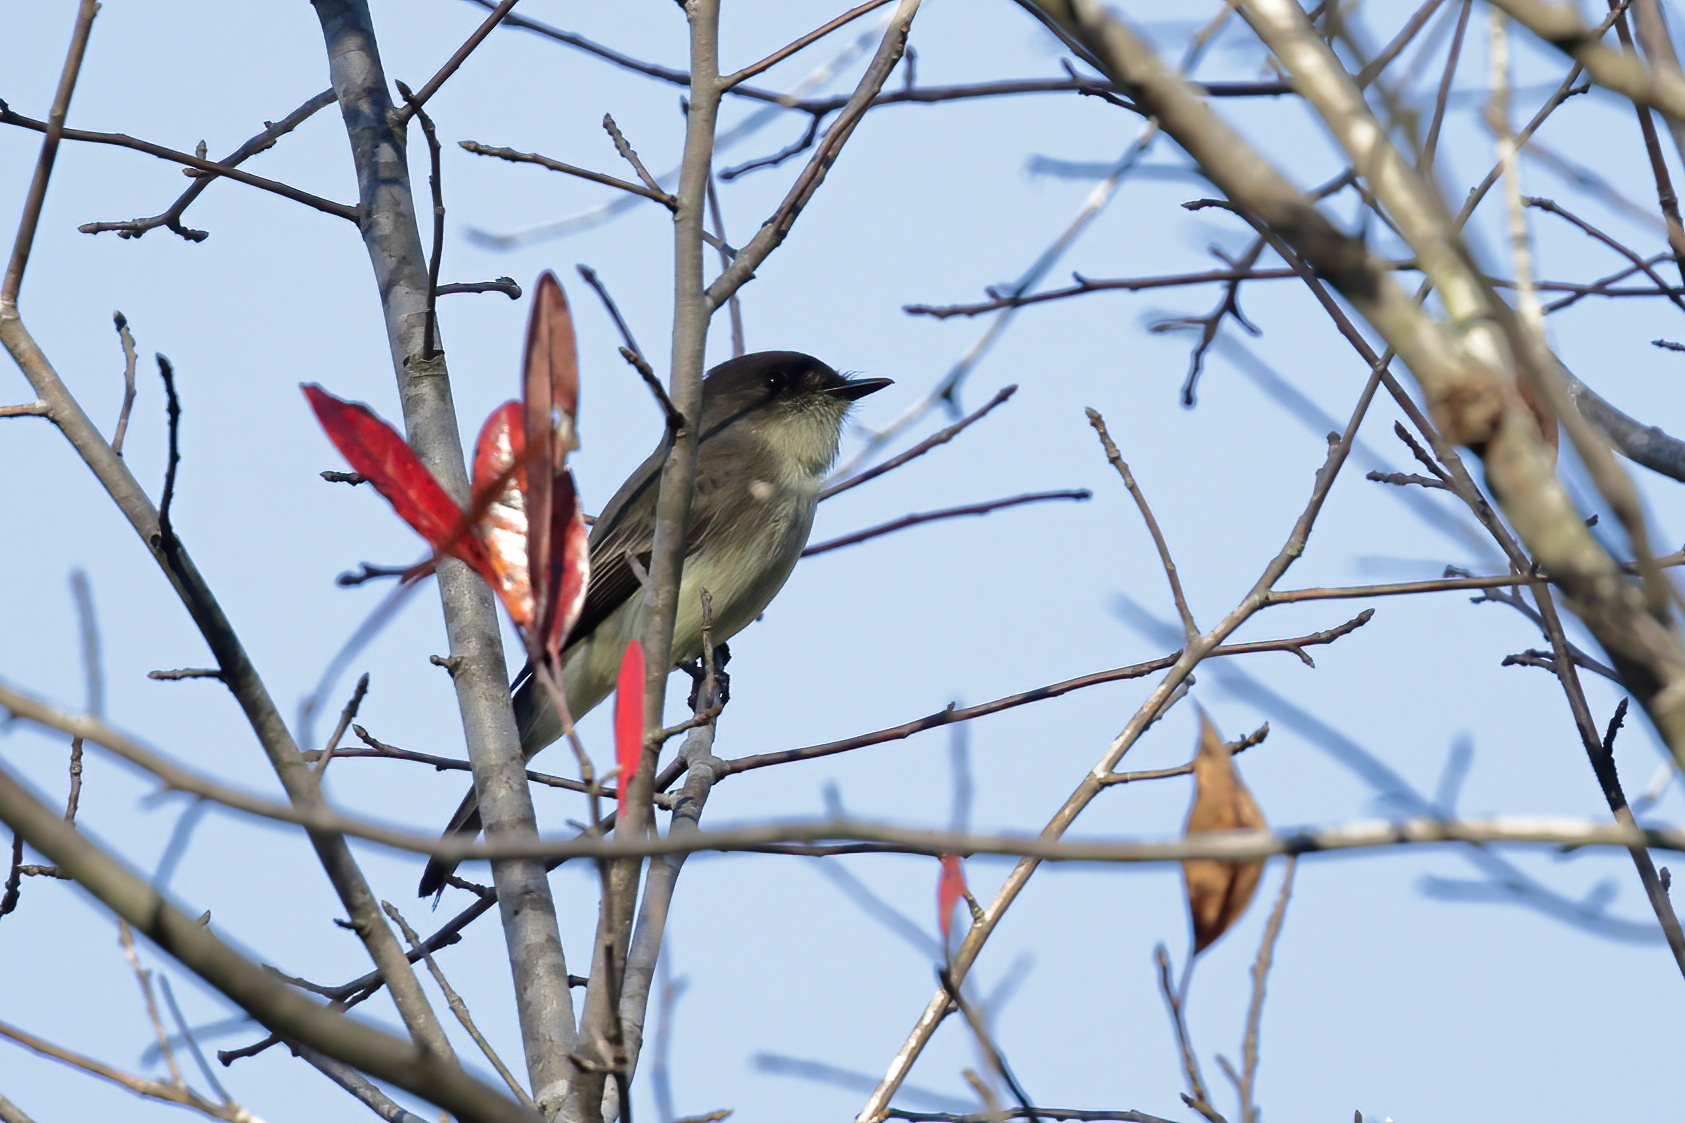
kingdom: Animalia
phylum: Chordata
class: Aves
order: Passeriformes
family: Tyrannidae
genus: Sayornis
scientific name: Sayornis phoebe
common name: Eastern phoebe
